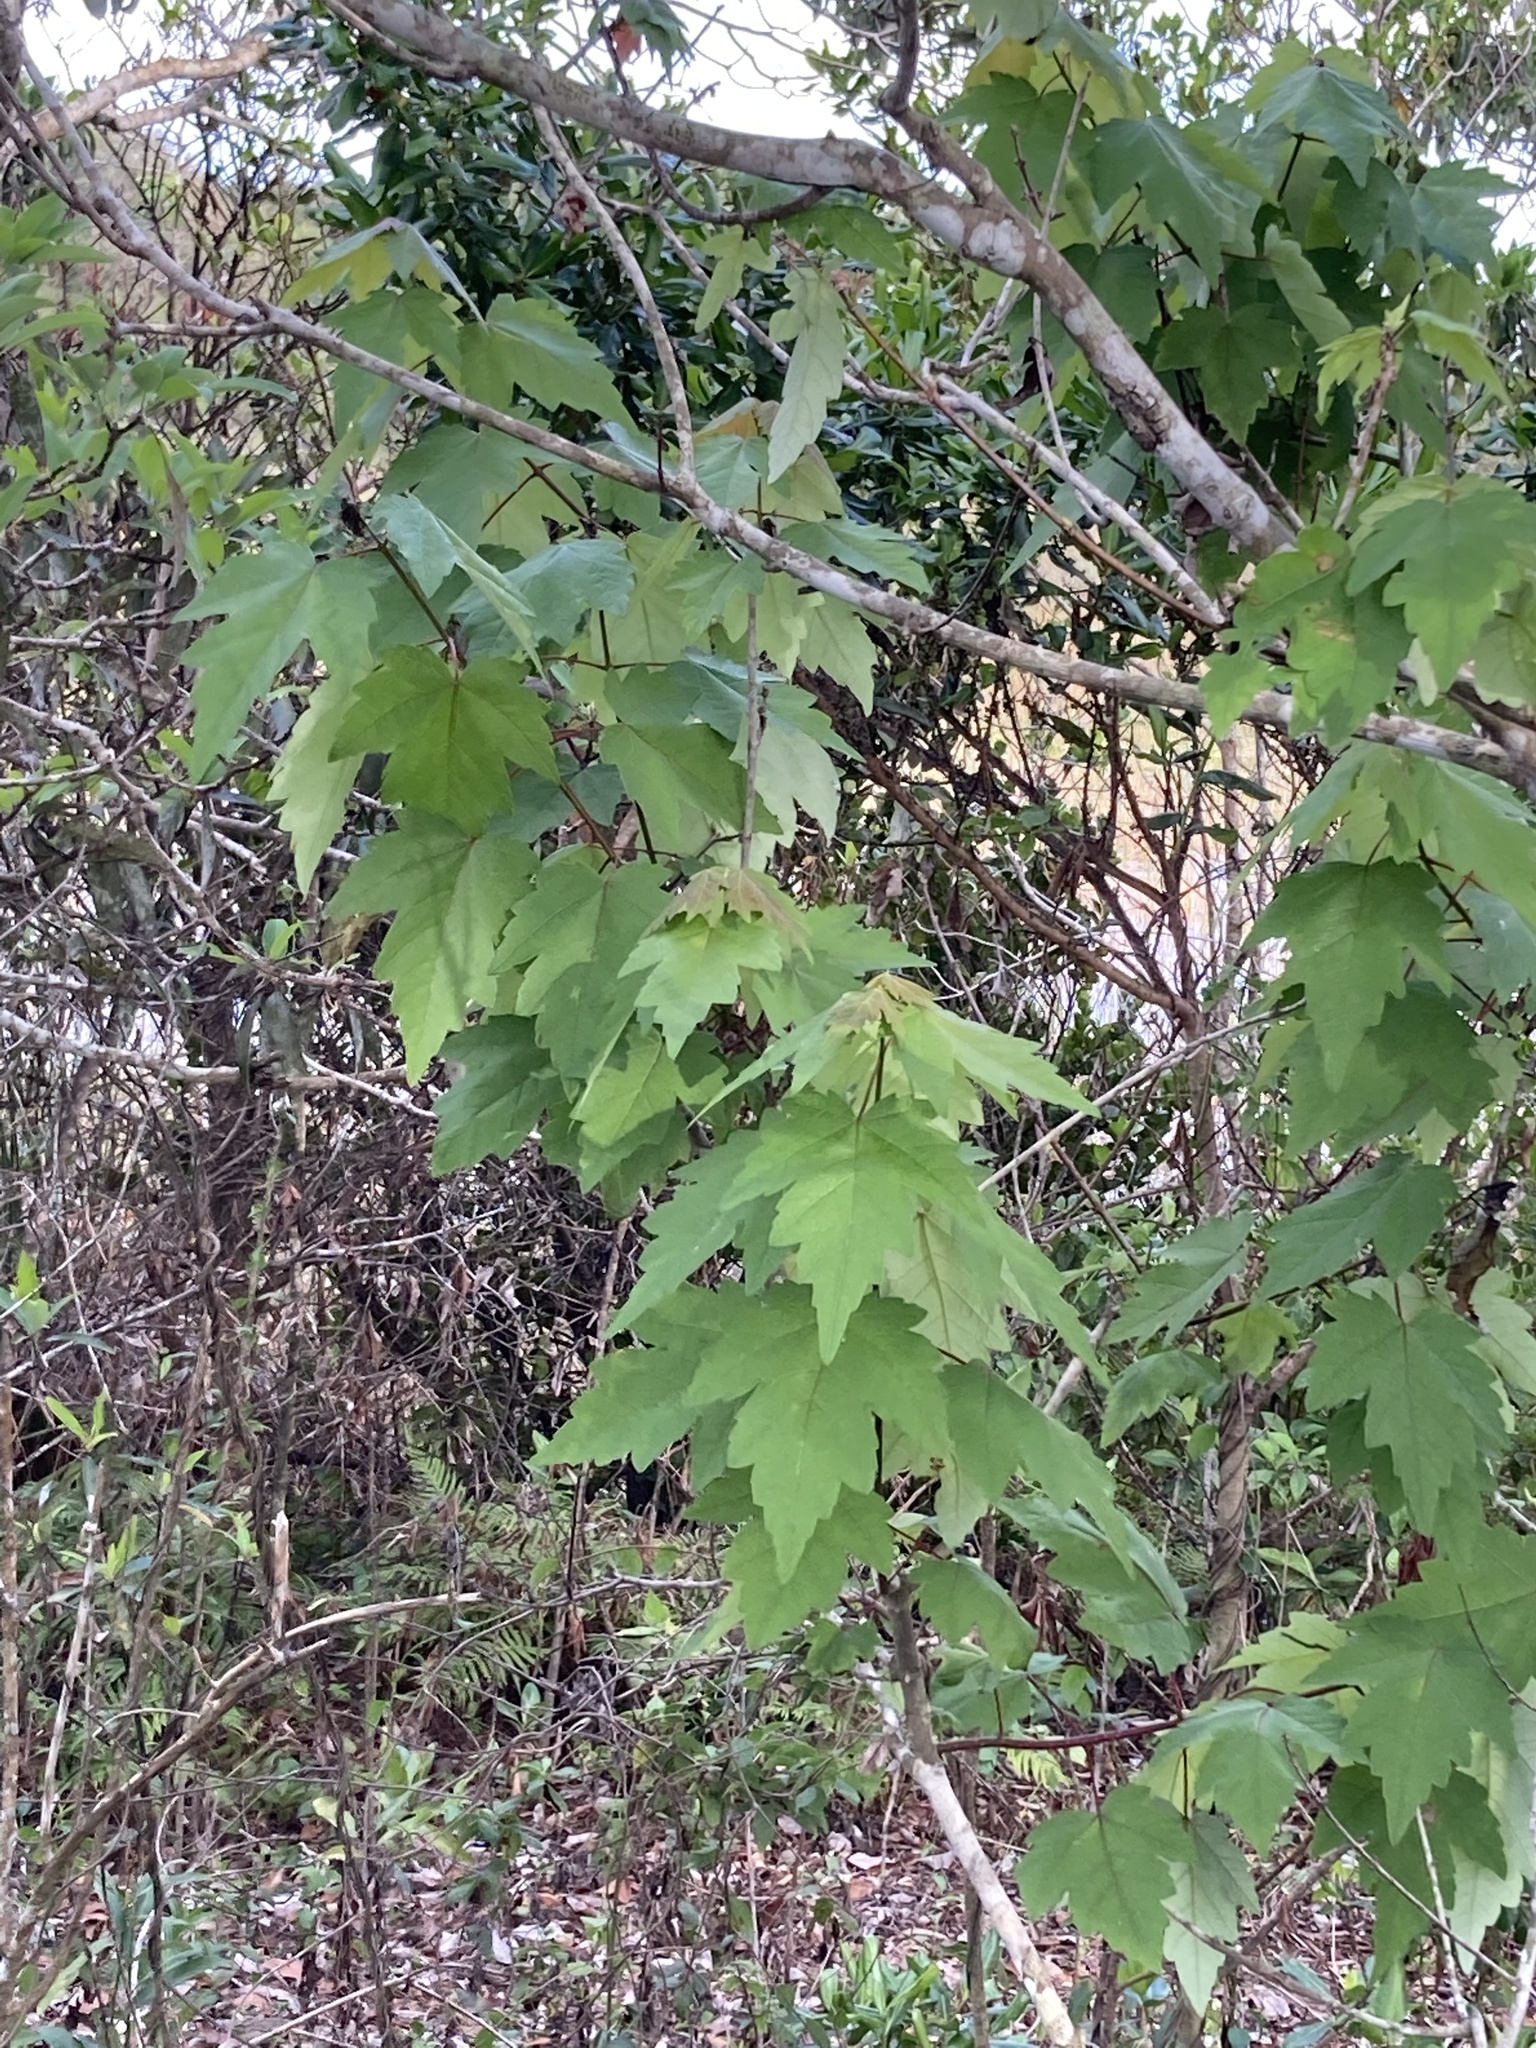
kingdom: Plantae
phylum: Tracheophyta
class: Magnoliopsida
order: Sapindales
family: Sapindaceae
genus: Acer
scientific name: Acer rubrum
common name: Red maple
